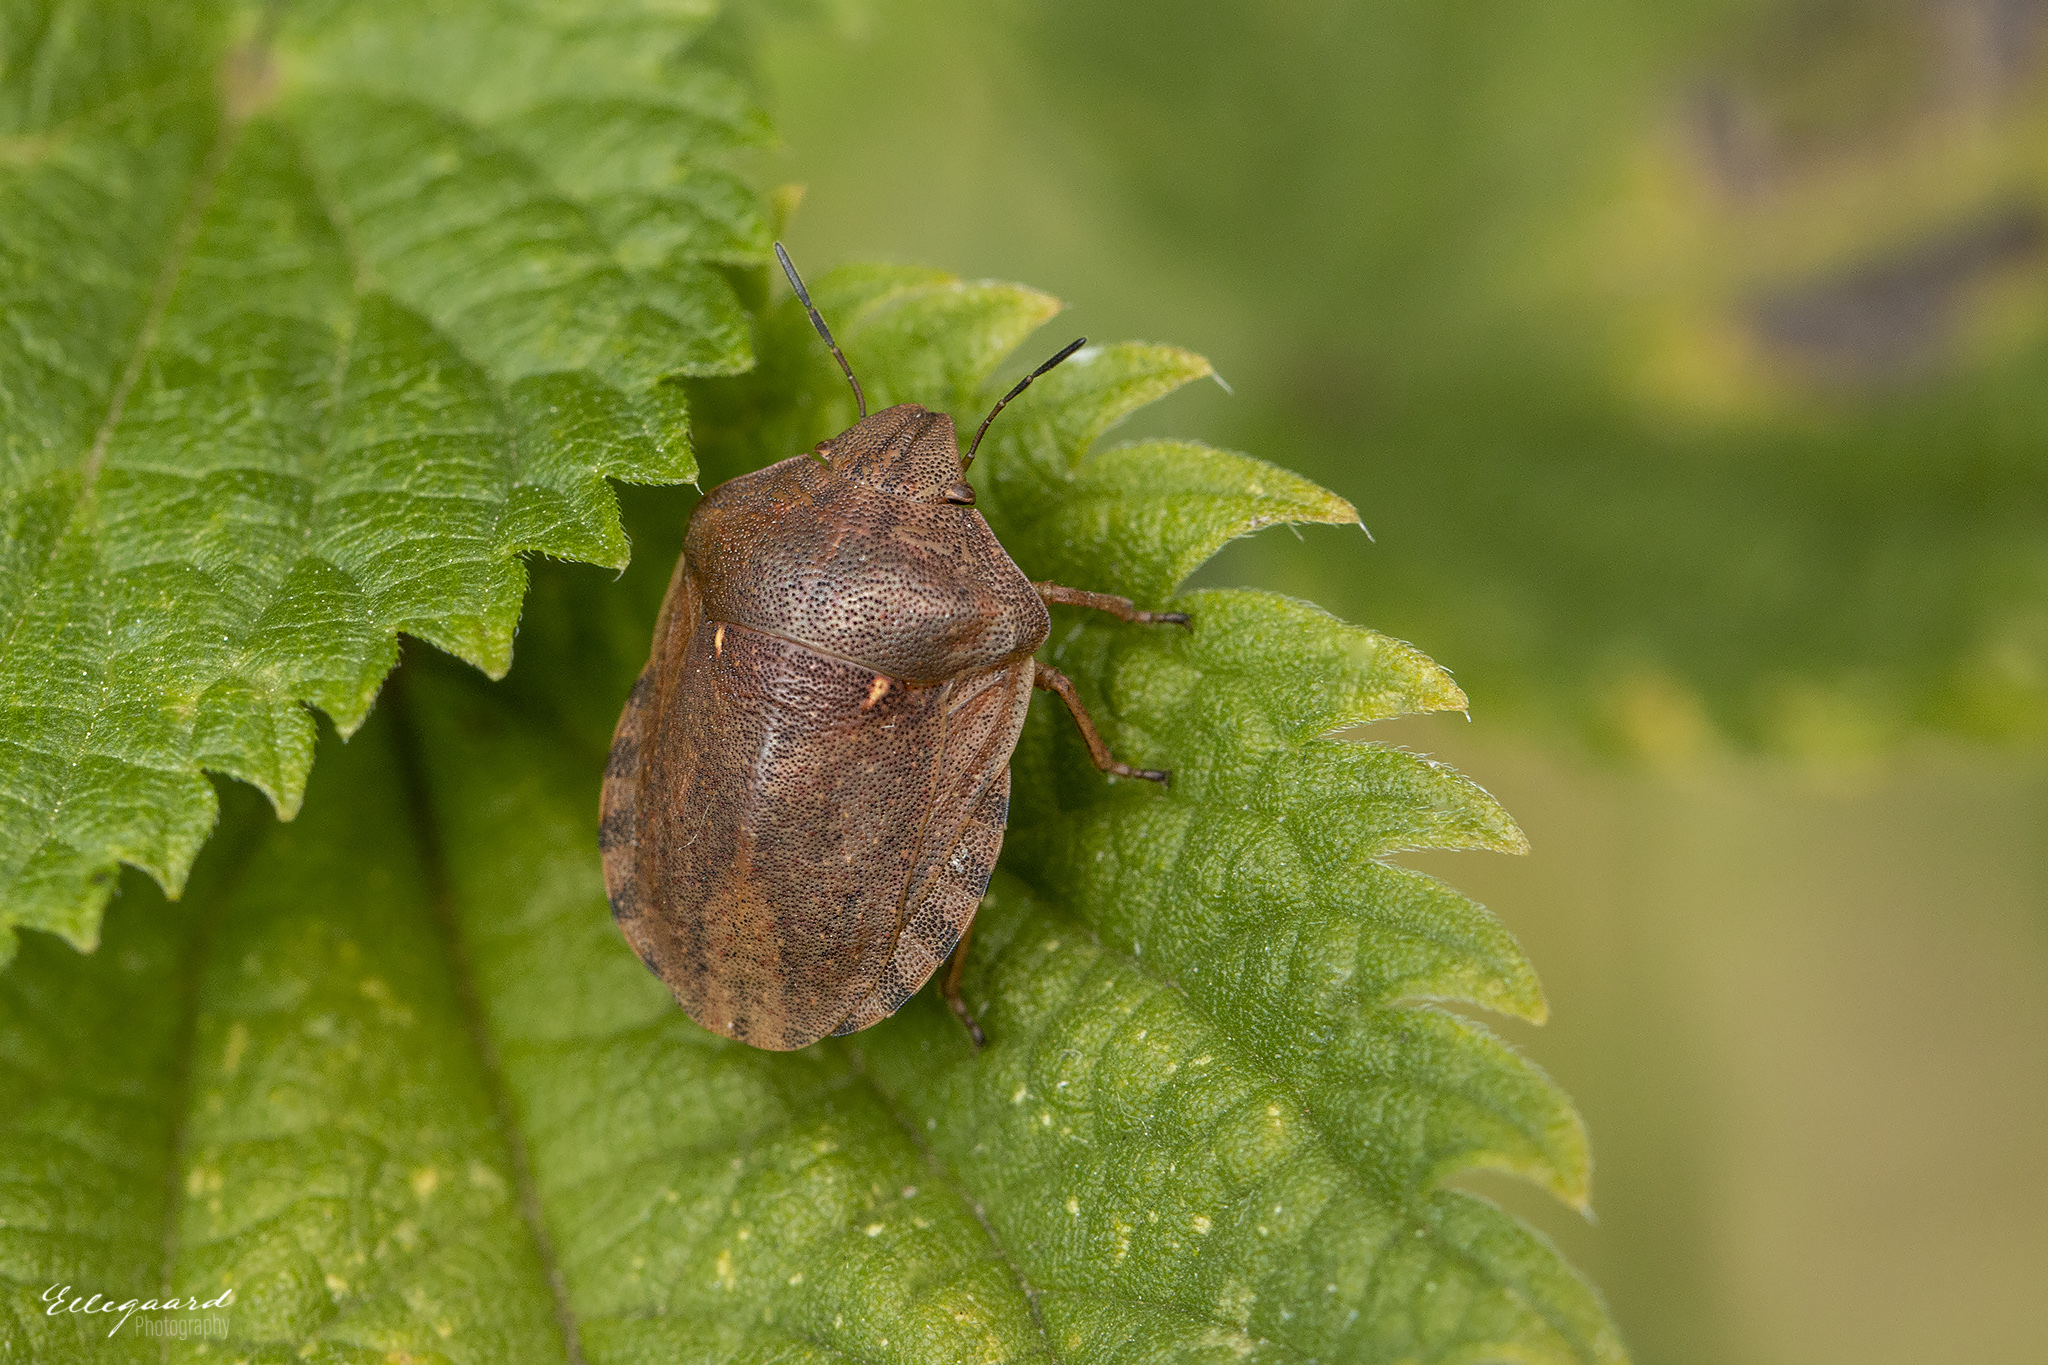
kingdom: Animalia
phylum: Arthropoda
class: Insecta
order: Hemiptera
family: Scutelleridae
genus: Eurygaster
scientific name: Eurygaster testudinaria
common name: Tortoise bug
